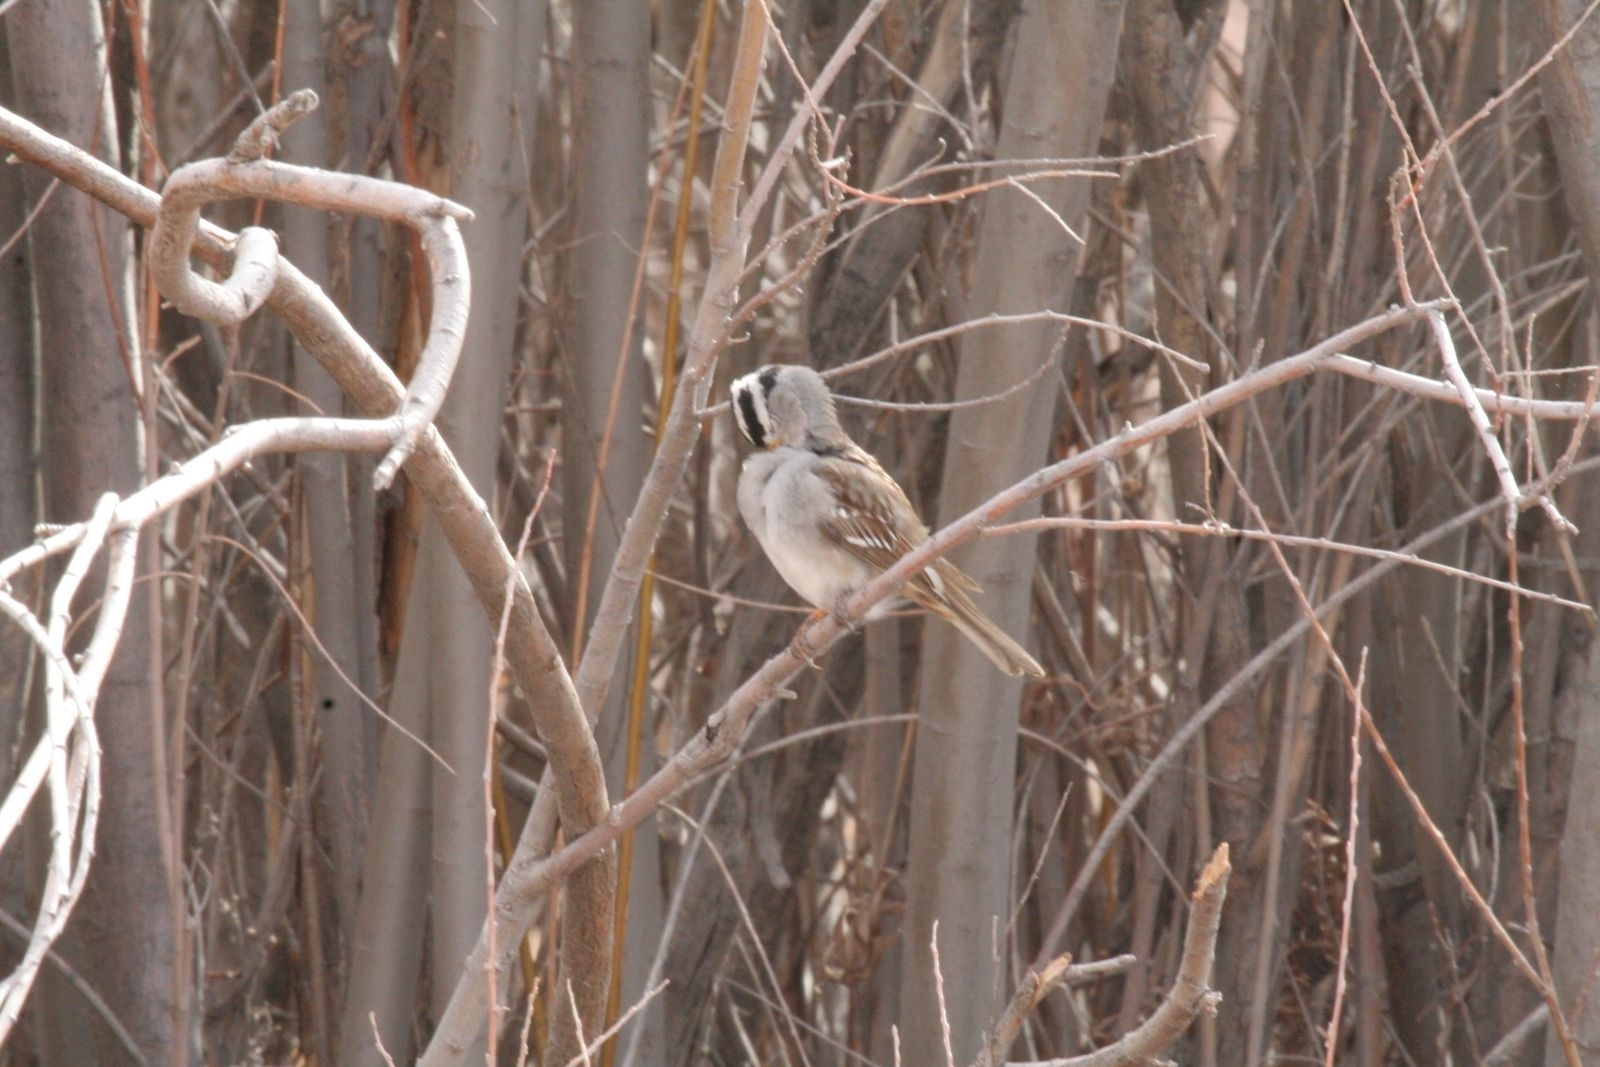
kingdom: Animalia
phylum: Chordata
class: Aves
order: Passeriformes
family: Passerellidae
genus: Zonotrichia
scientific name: Zonotrichia leucophrys
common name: White-crowned sparrow
